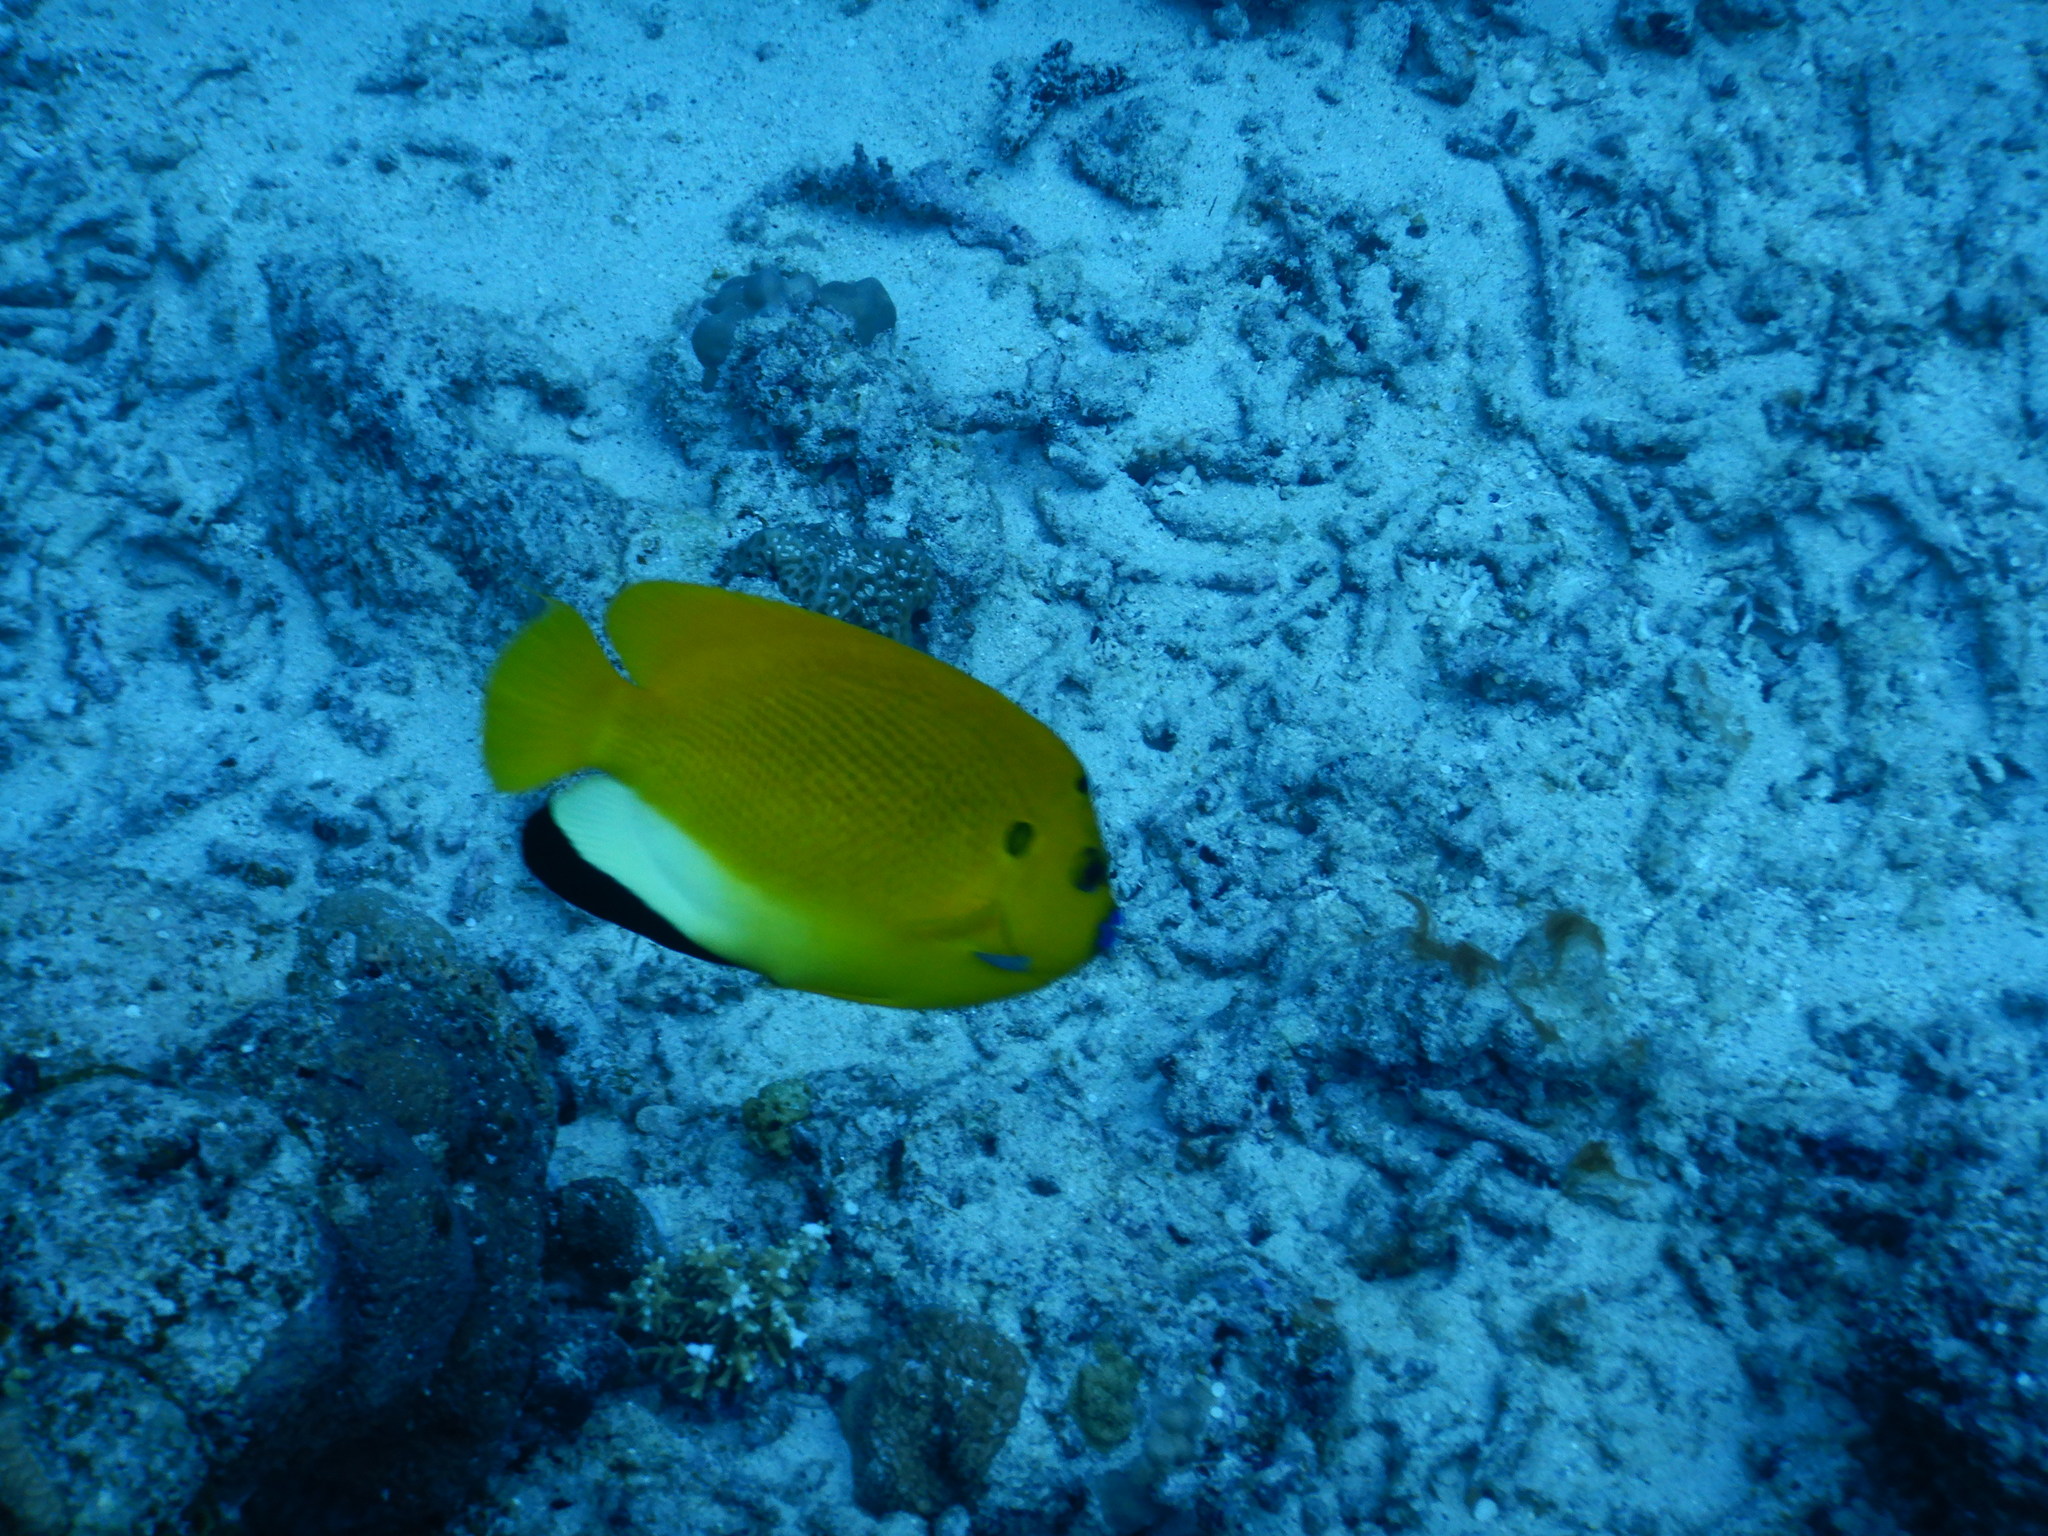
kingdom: Animalia
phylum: Chordata
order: Perciformes
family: Pomacanthidae
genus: Apolemichthys
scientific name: Apolemichthys trimaculatus
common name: Threespot angelfish
